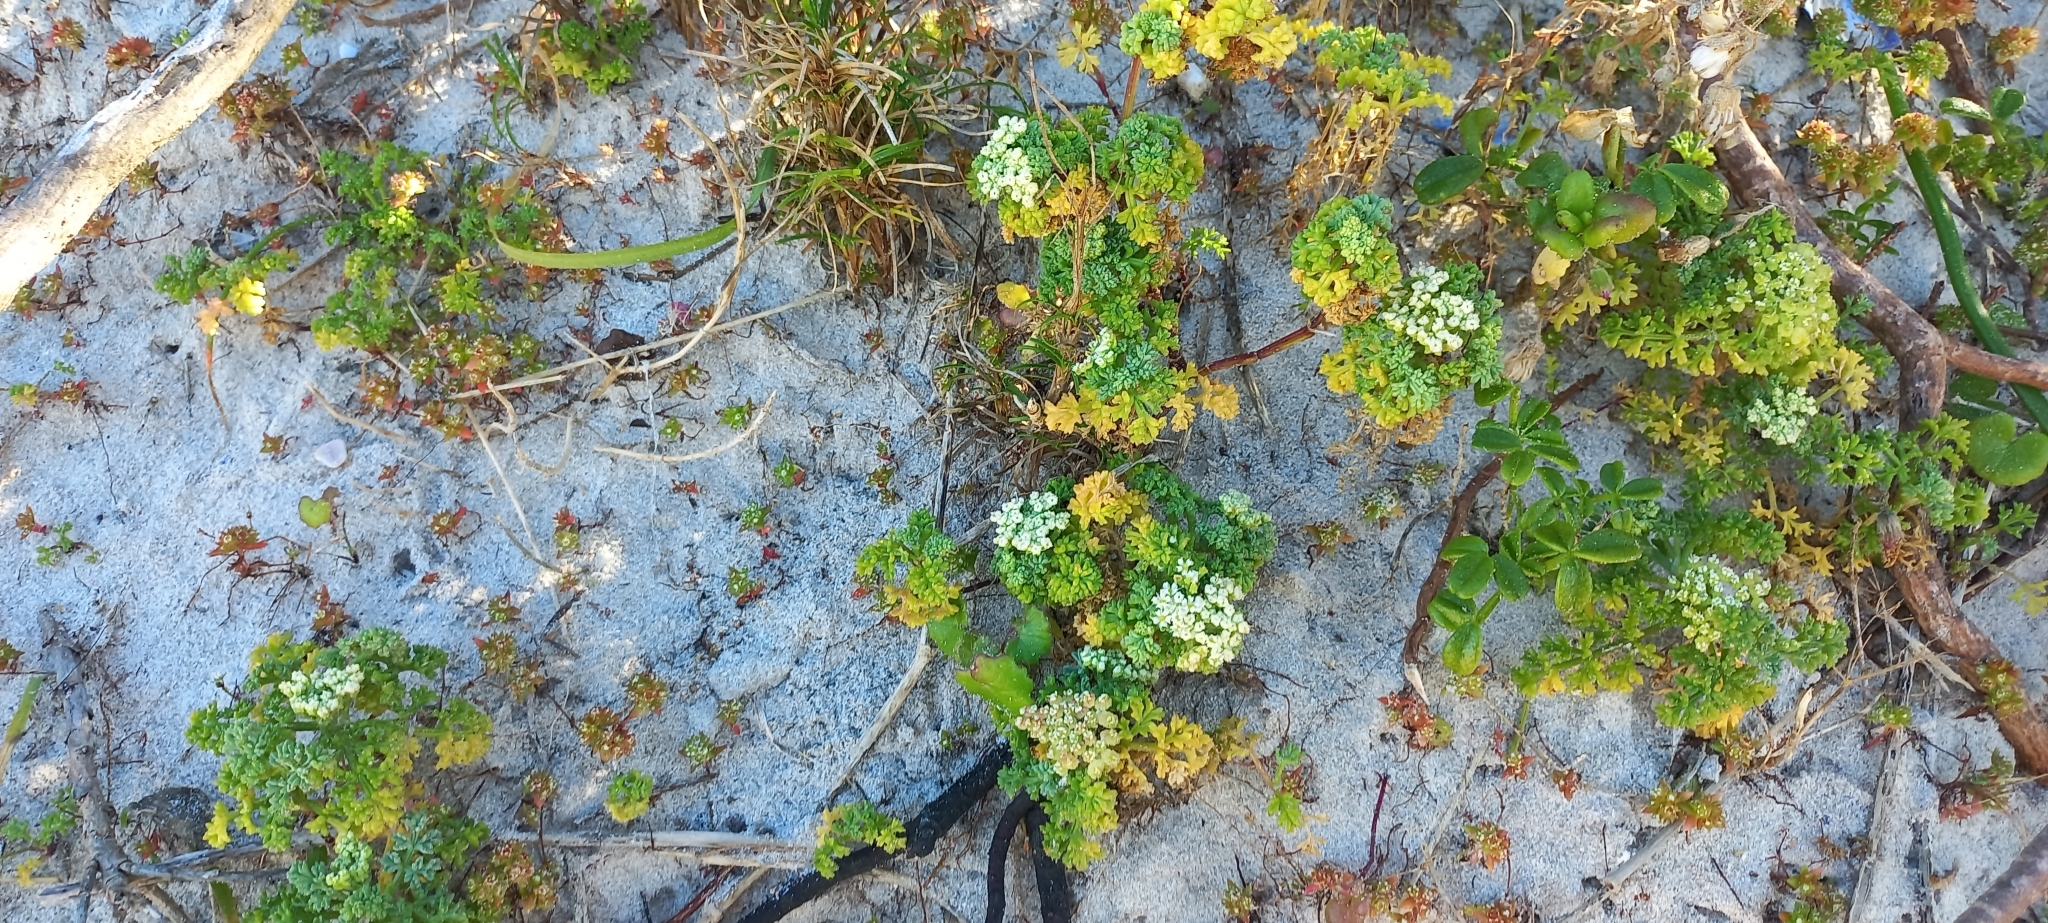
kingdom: Plantae
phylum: Tracheophyta
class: Magnoliopsida
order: Apiales
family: Apiaceae
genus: Dasispermum
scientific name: Dasispermum suffruticosum
